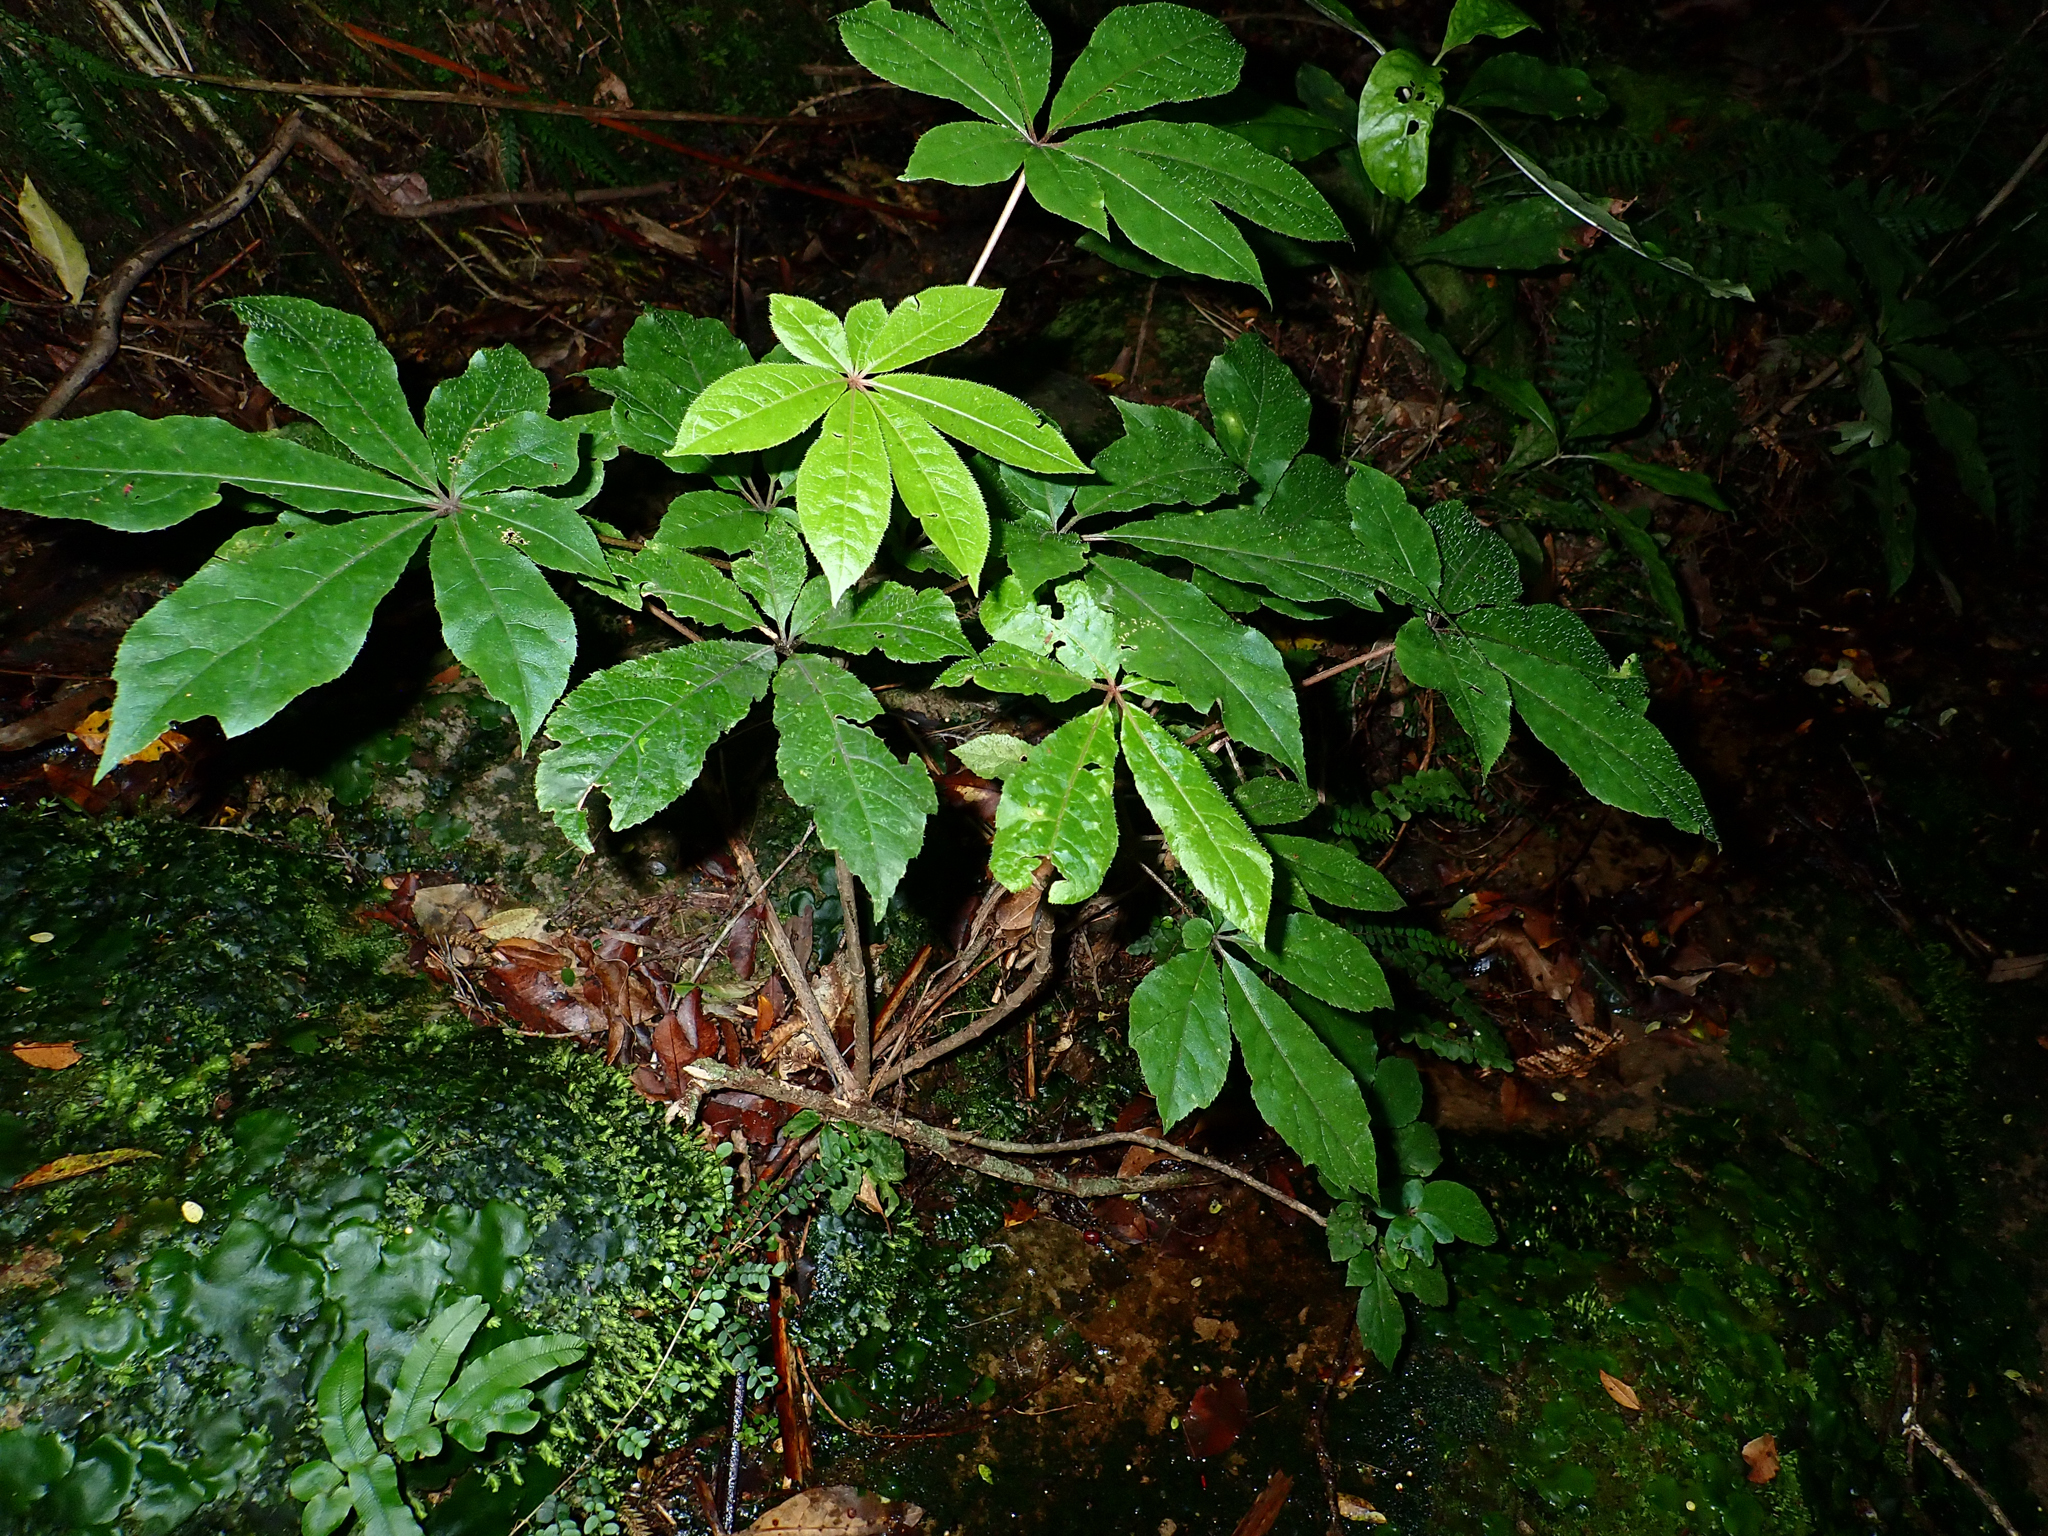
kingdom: Plantae
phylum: Tracheophyta
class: Magnoliopsida
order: Apiales
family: Araliaceae
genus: Schefflera
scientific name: Schefflera digitata
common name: Pate
